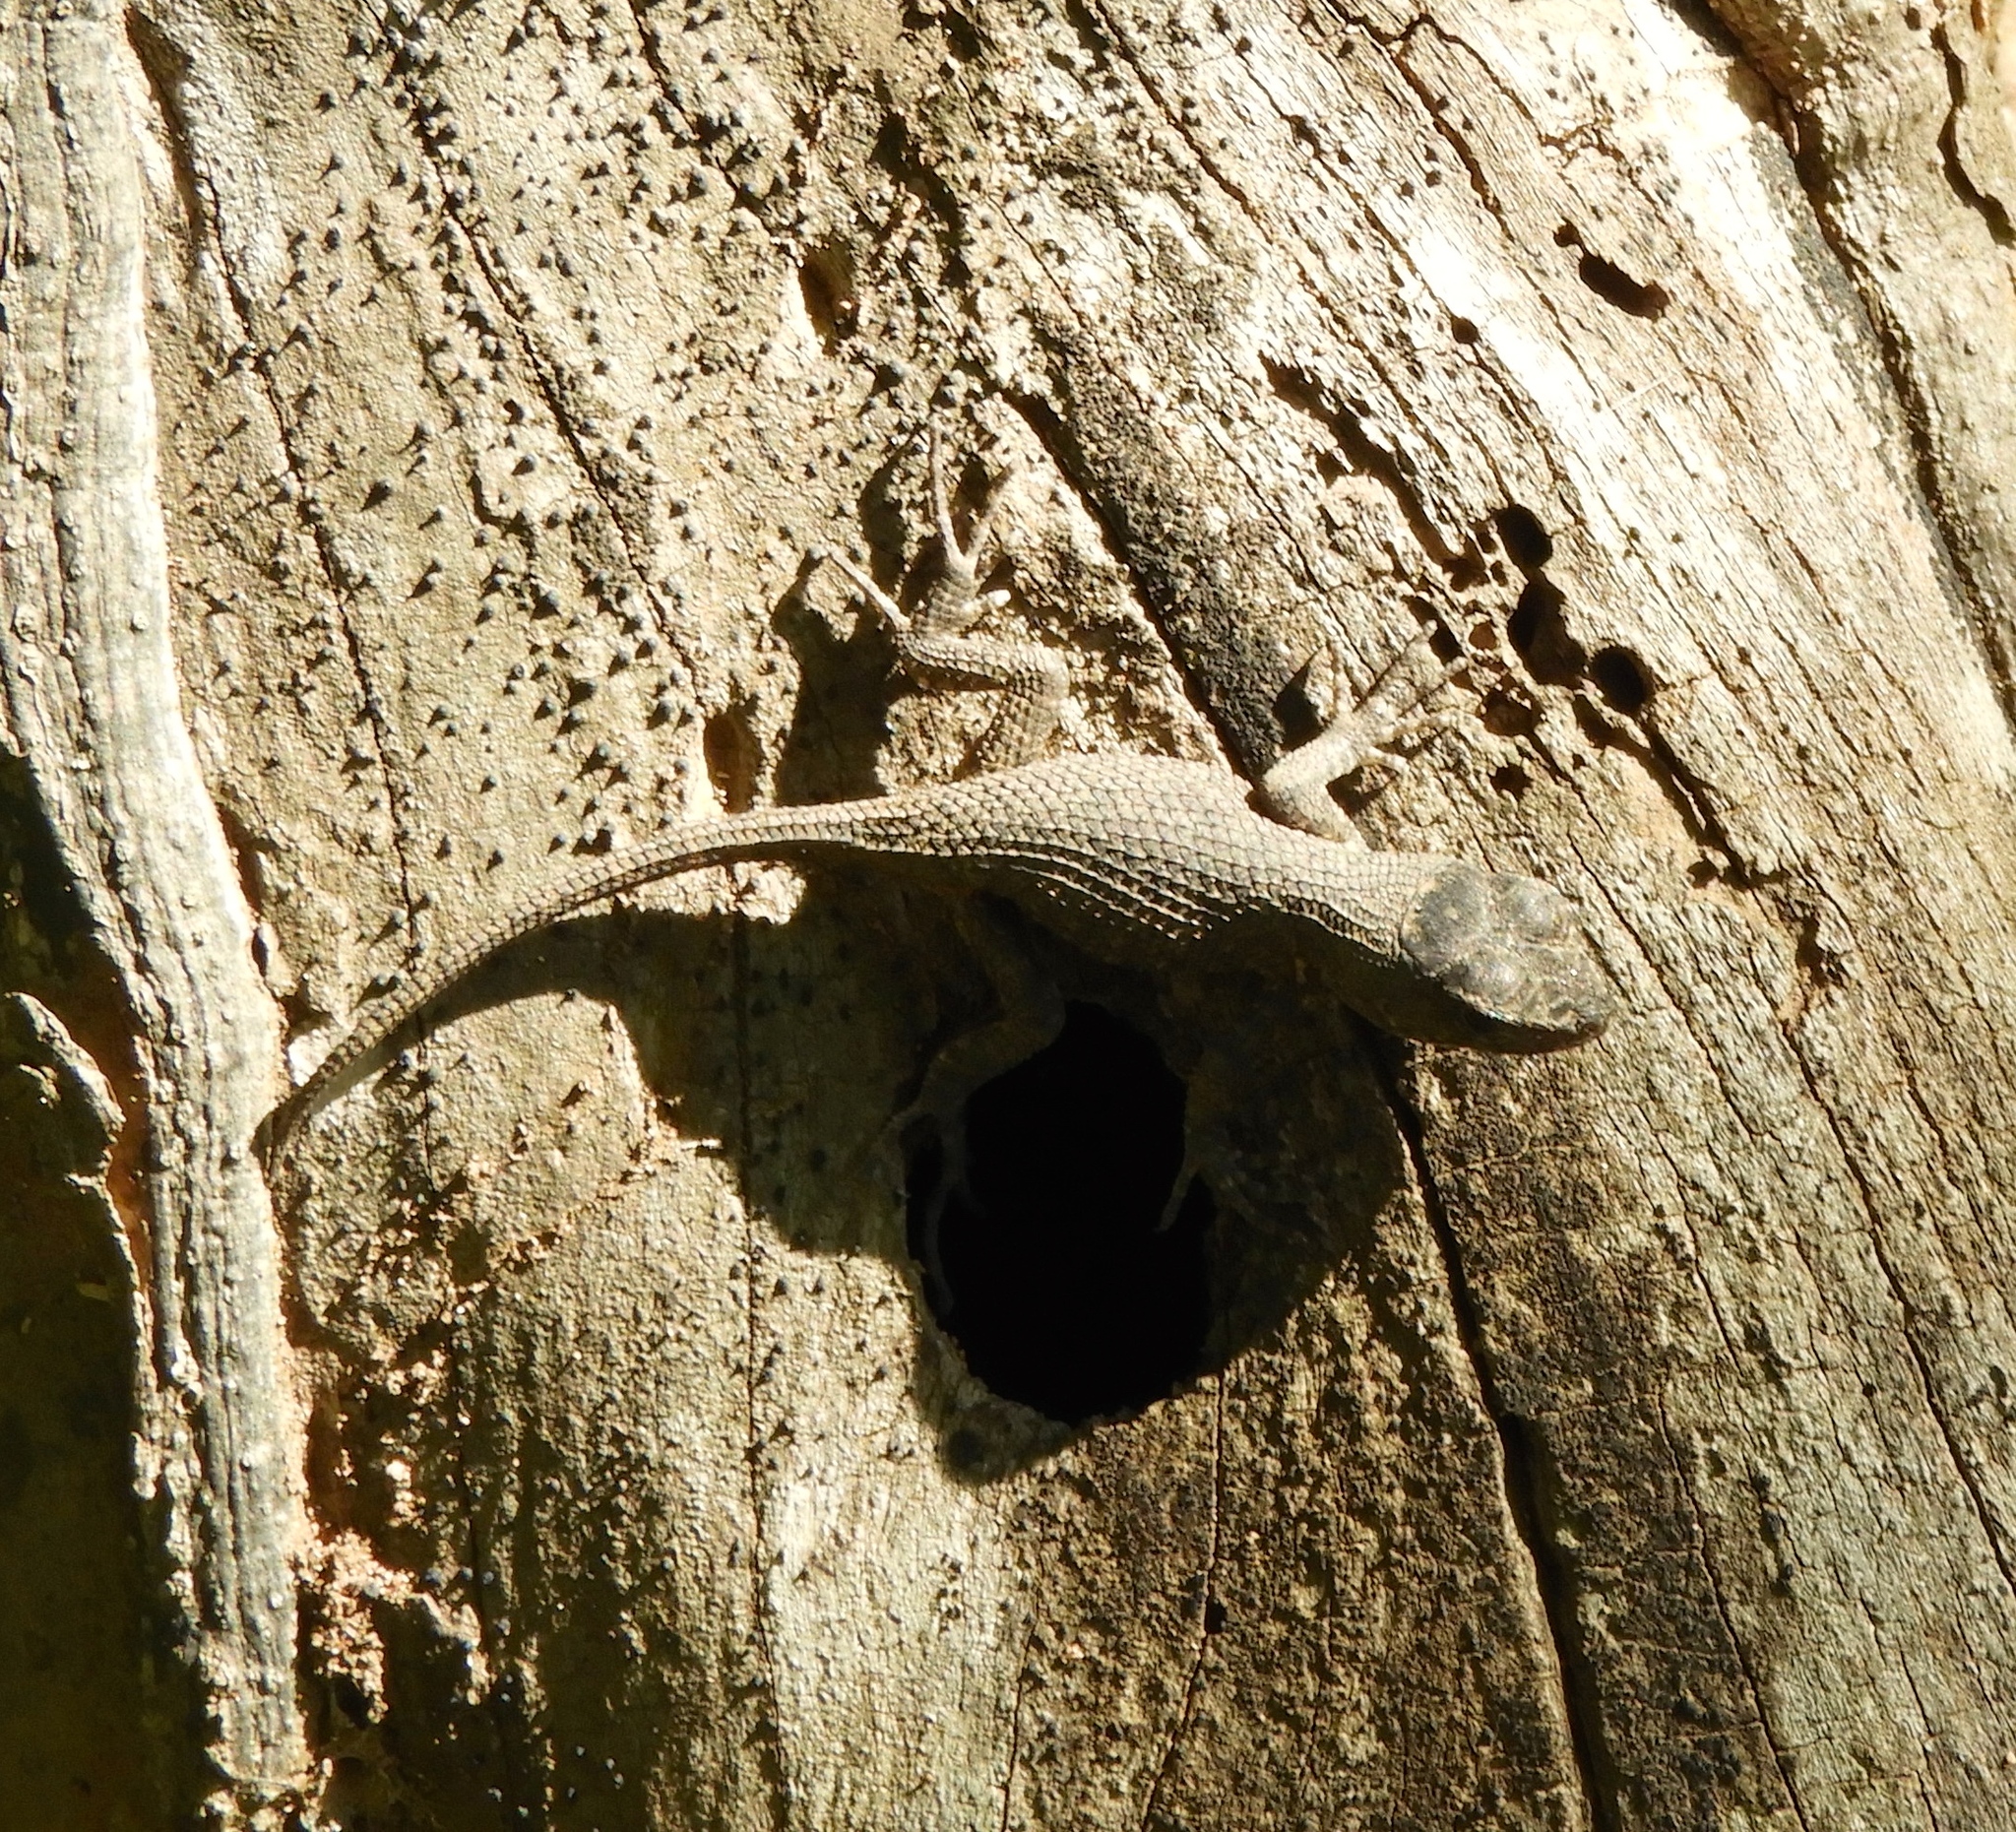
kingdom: Animalia
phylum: Chordata
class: Squamata
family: Phrynosomatidae
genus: Sceloporus
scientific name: Sceloporus nelsoni
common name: Nelson's spiny lizard
